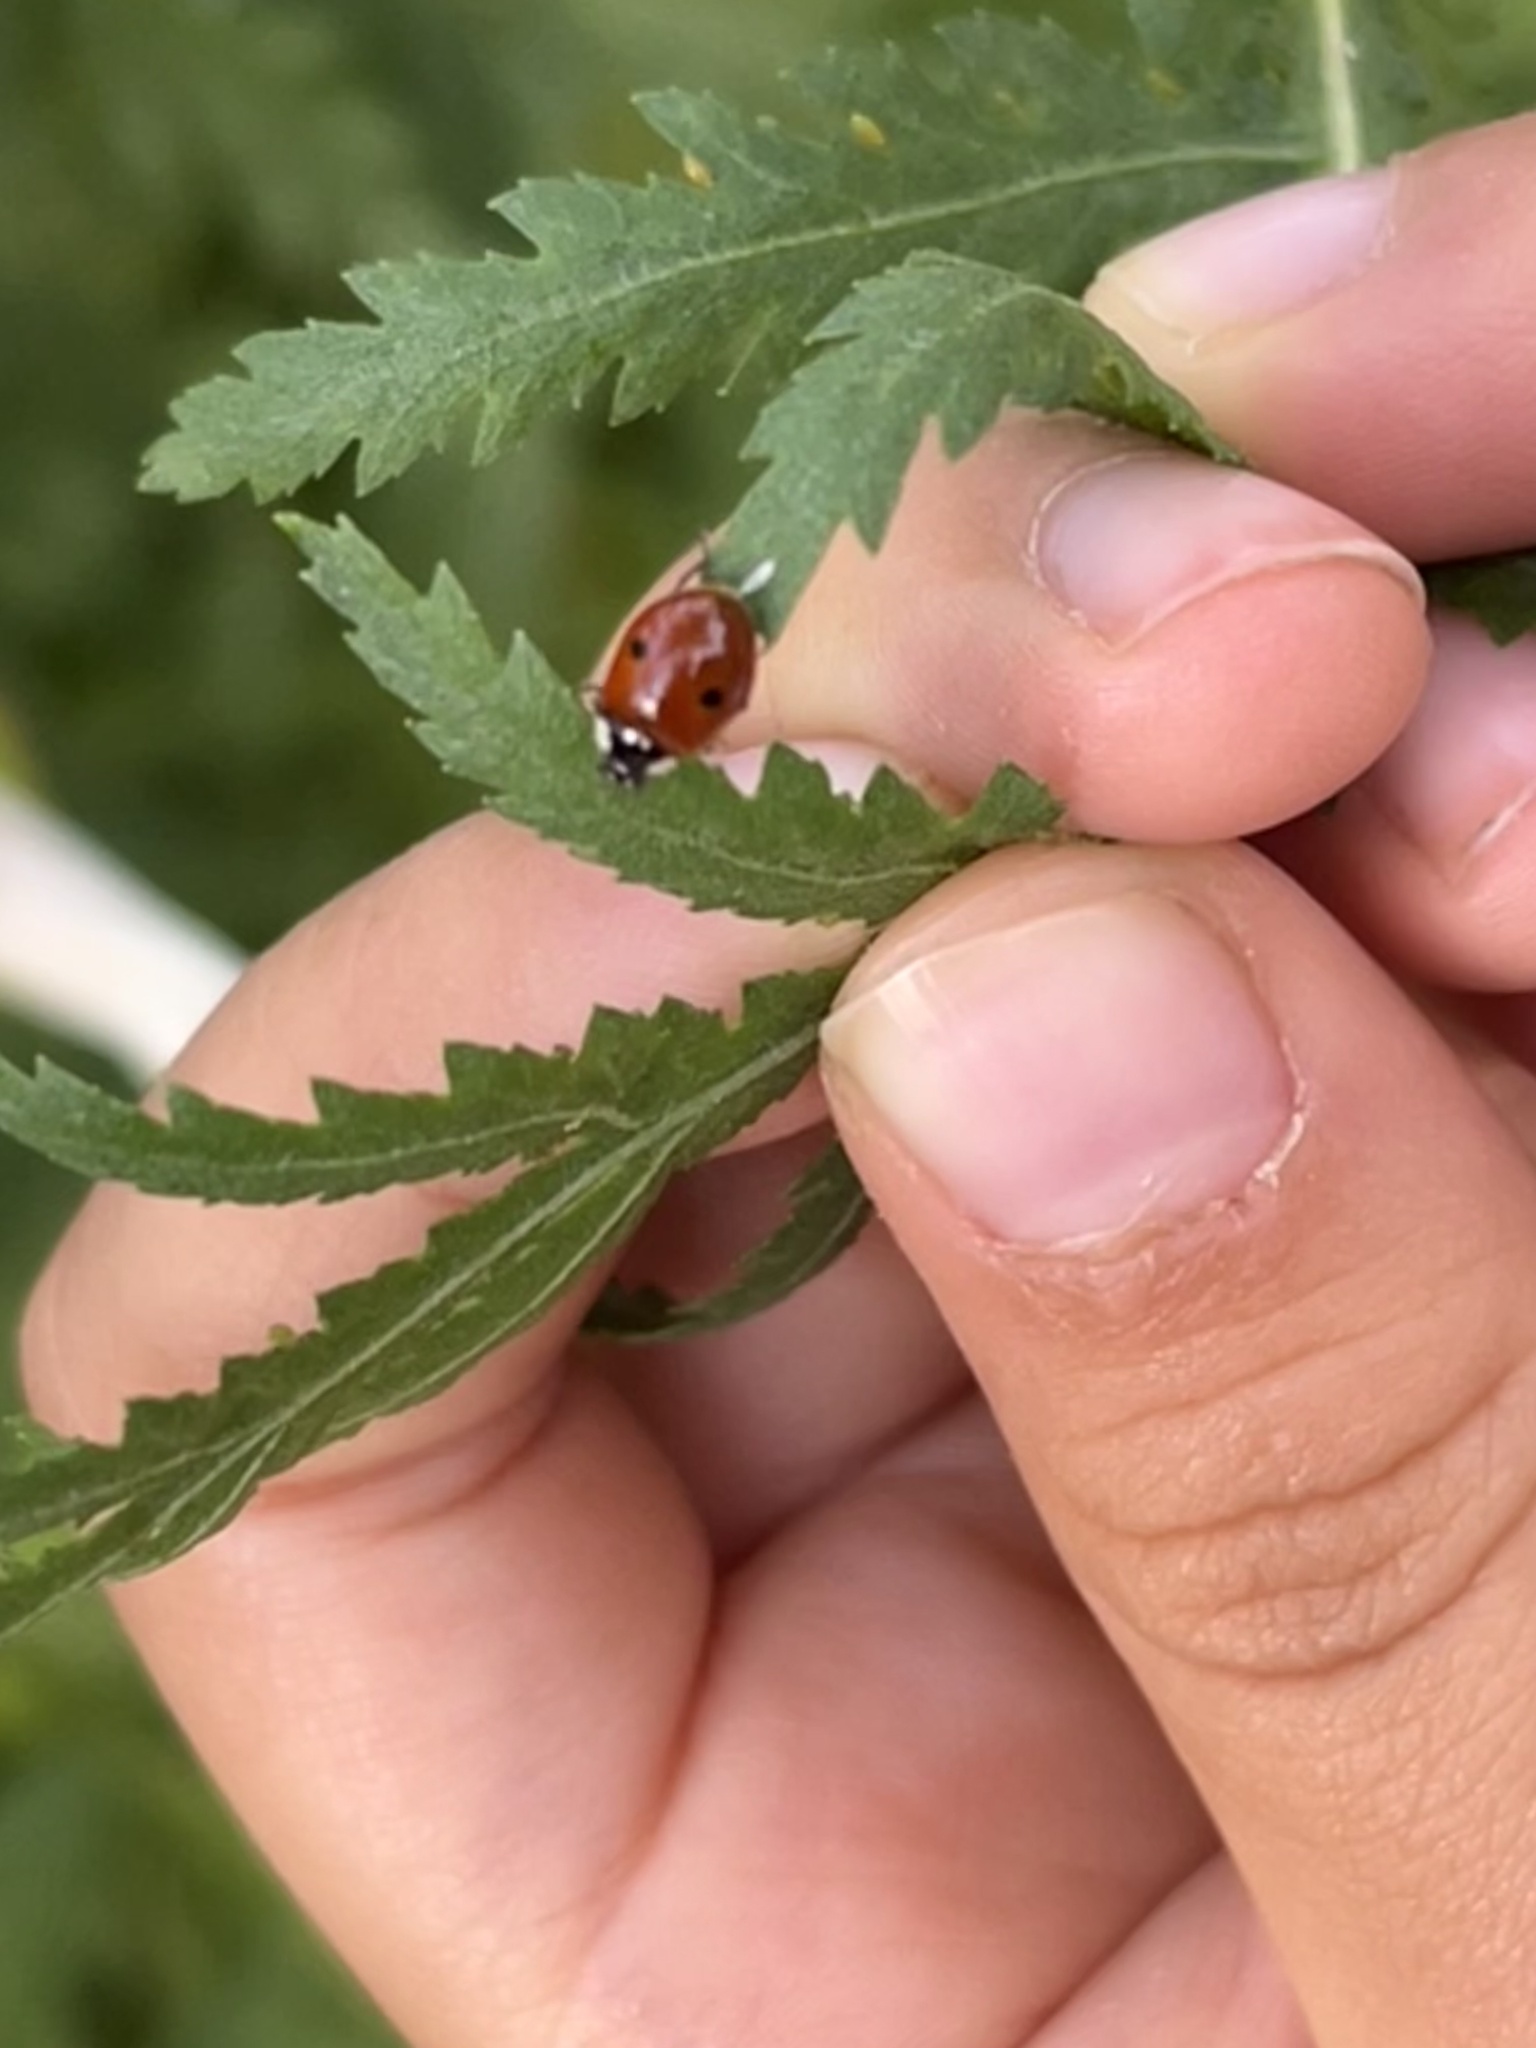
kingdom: Animalia
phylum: Arthropoda
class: Insecta
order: Coleoptera
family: Coccinellidae
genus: Adalia
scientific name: Adalia bipunctata
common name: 2-spot ladybird
